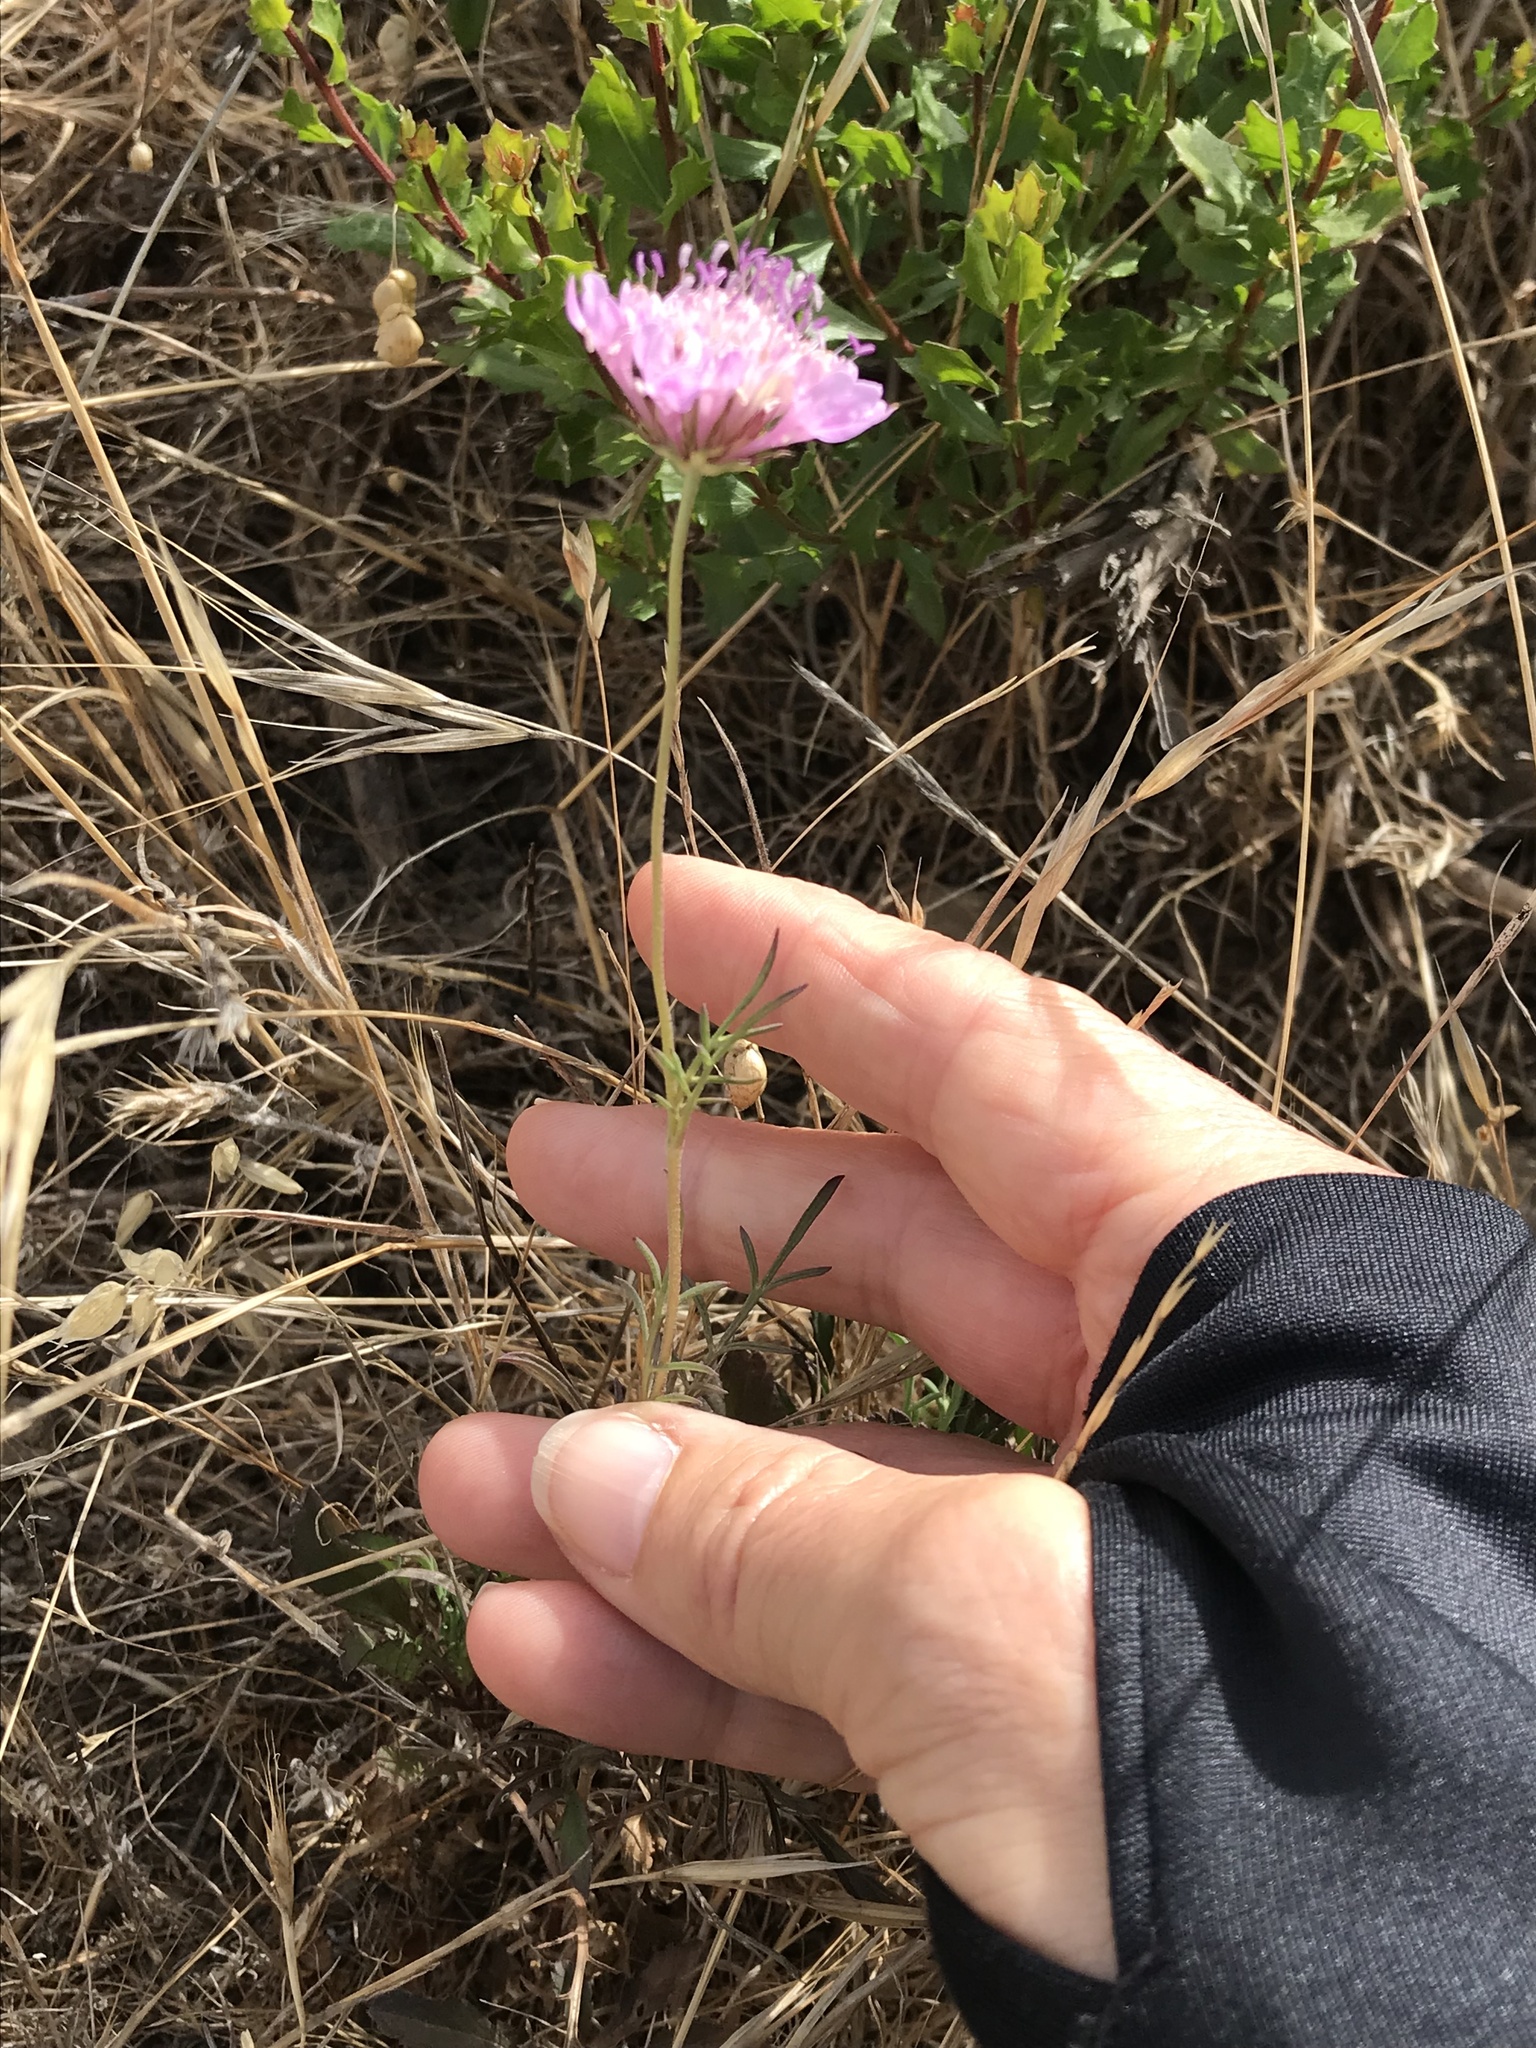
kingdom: Plantae
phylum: Tracheophyta
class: Magnoliopsida
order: Dipsacales
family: Caprifoliaceae
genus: Sixalix
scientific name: Sixalix atropurpurea
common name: Sweet scabious
